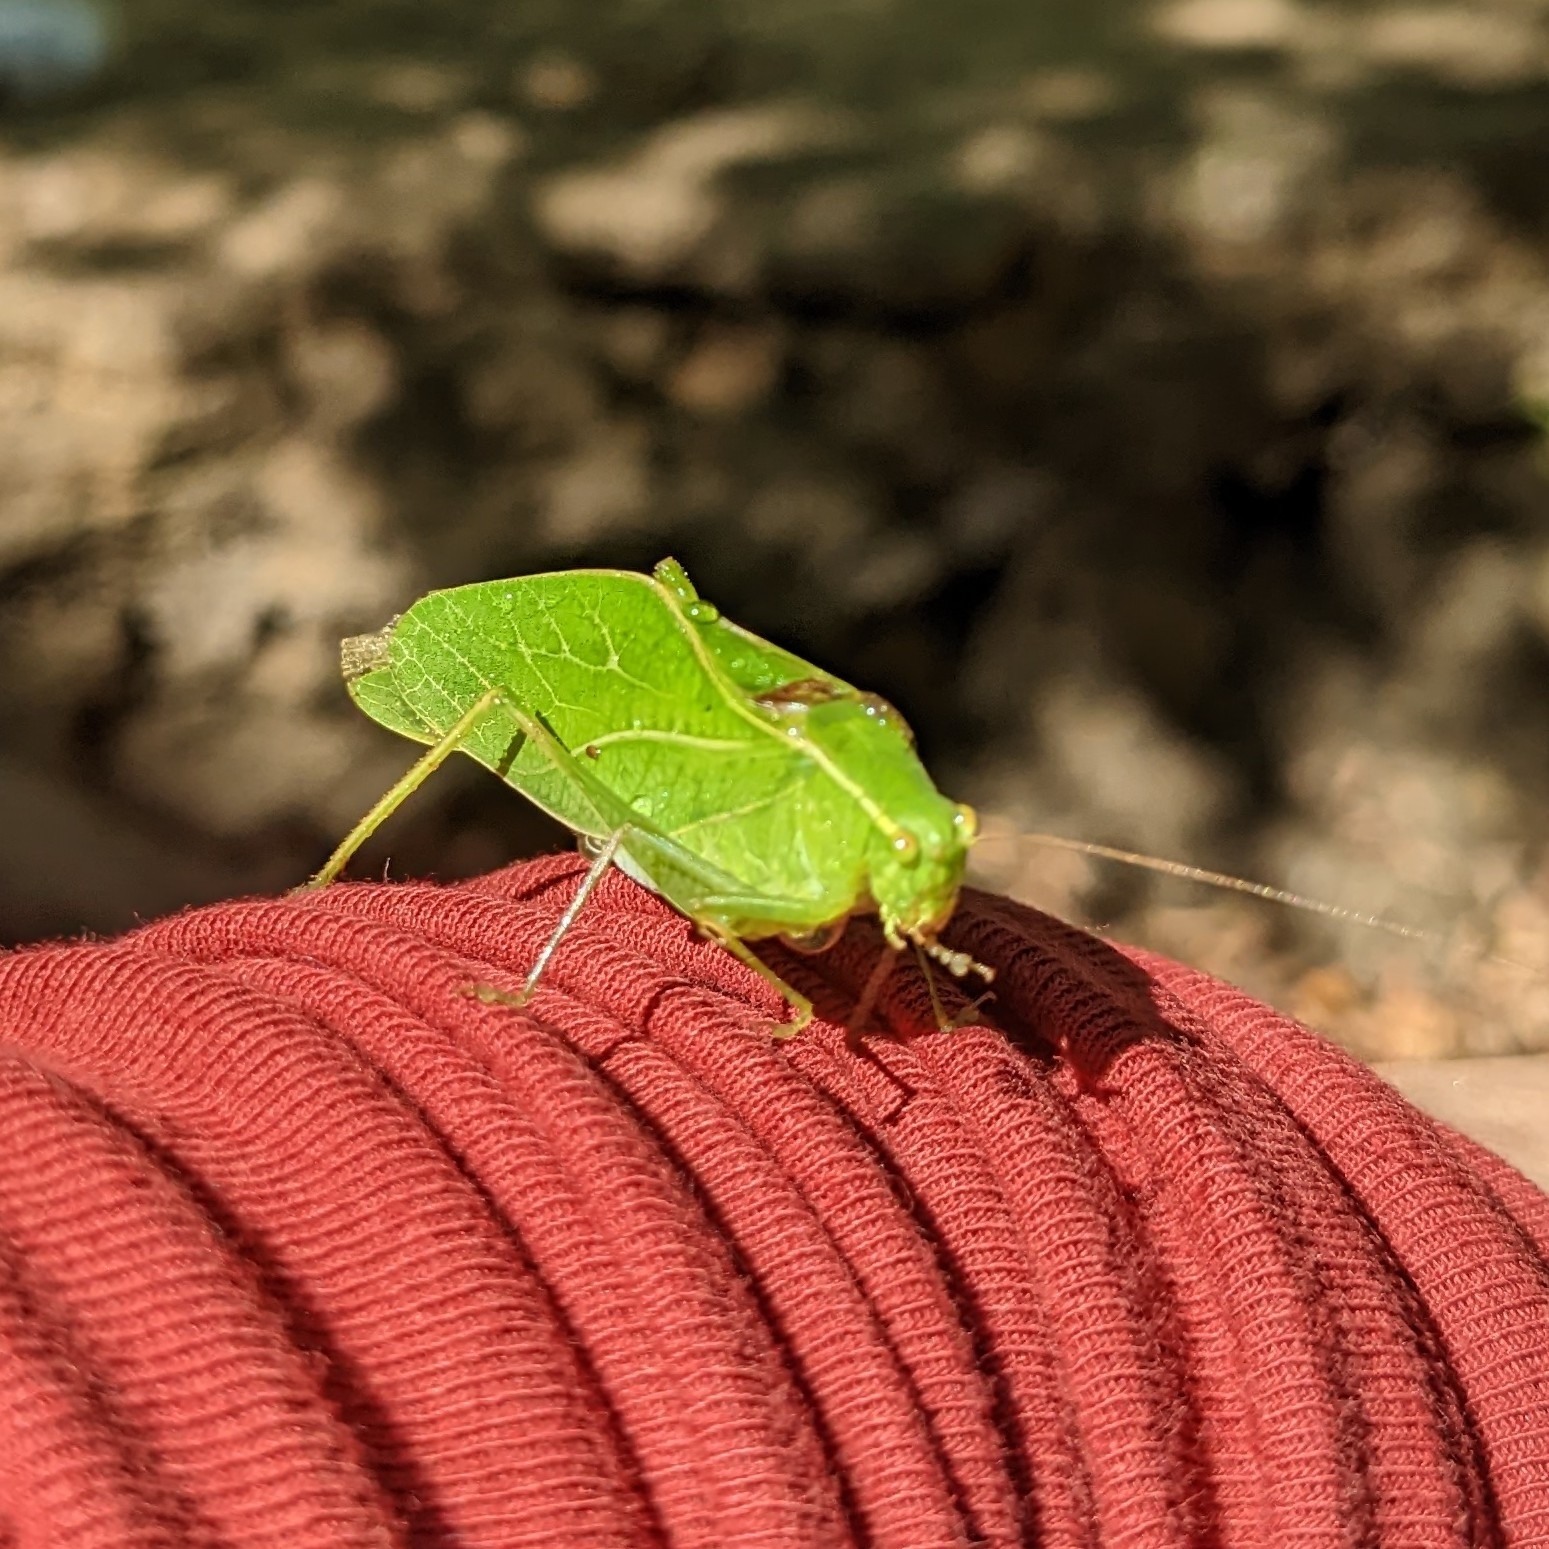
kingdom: Animalia
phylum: Arthropoda
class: Insecta
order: Orthoptera
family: Tettigoniidae
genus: Microcentrum
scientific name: Microcentrum retinerve
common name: Angular-winged katydid
